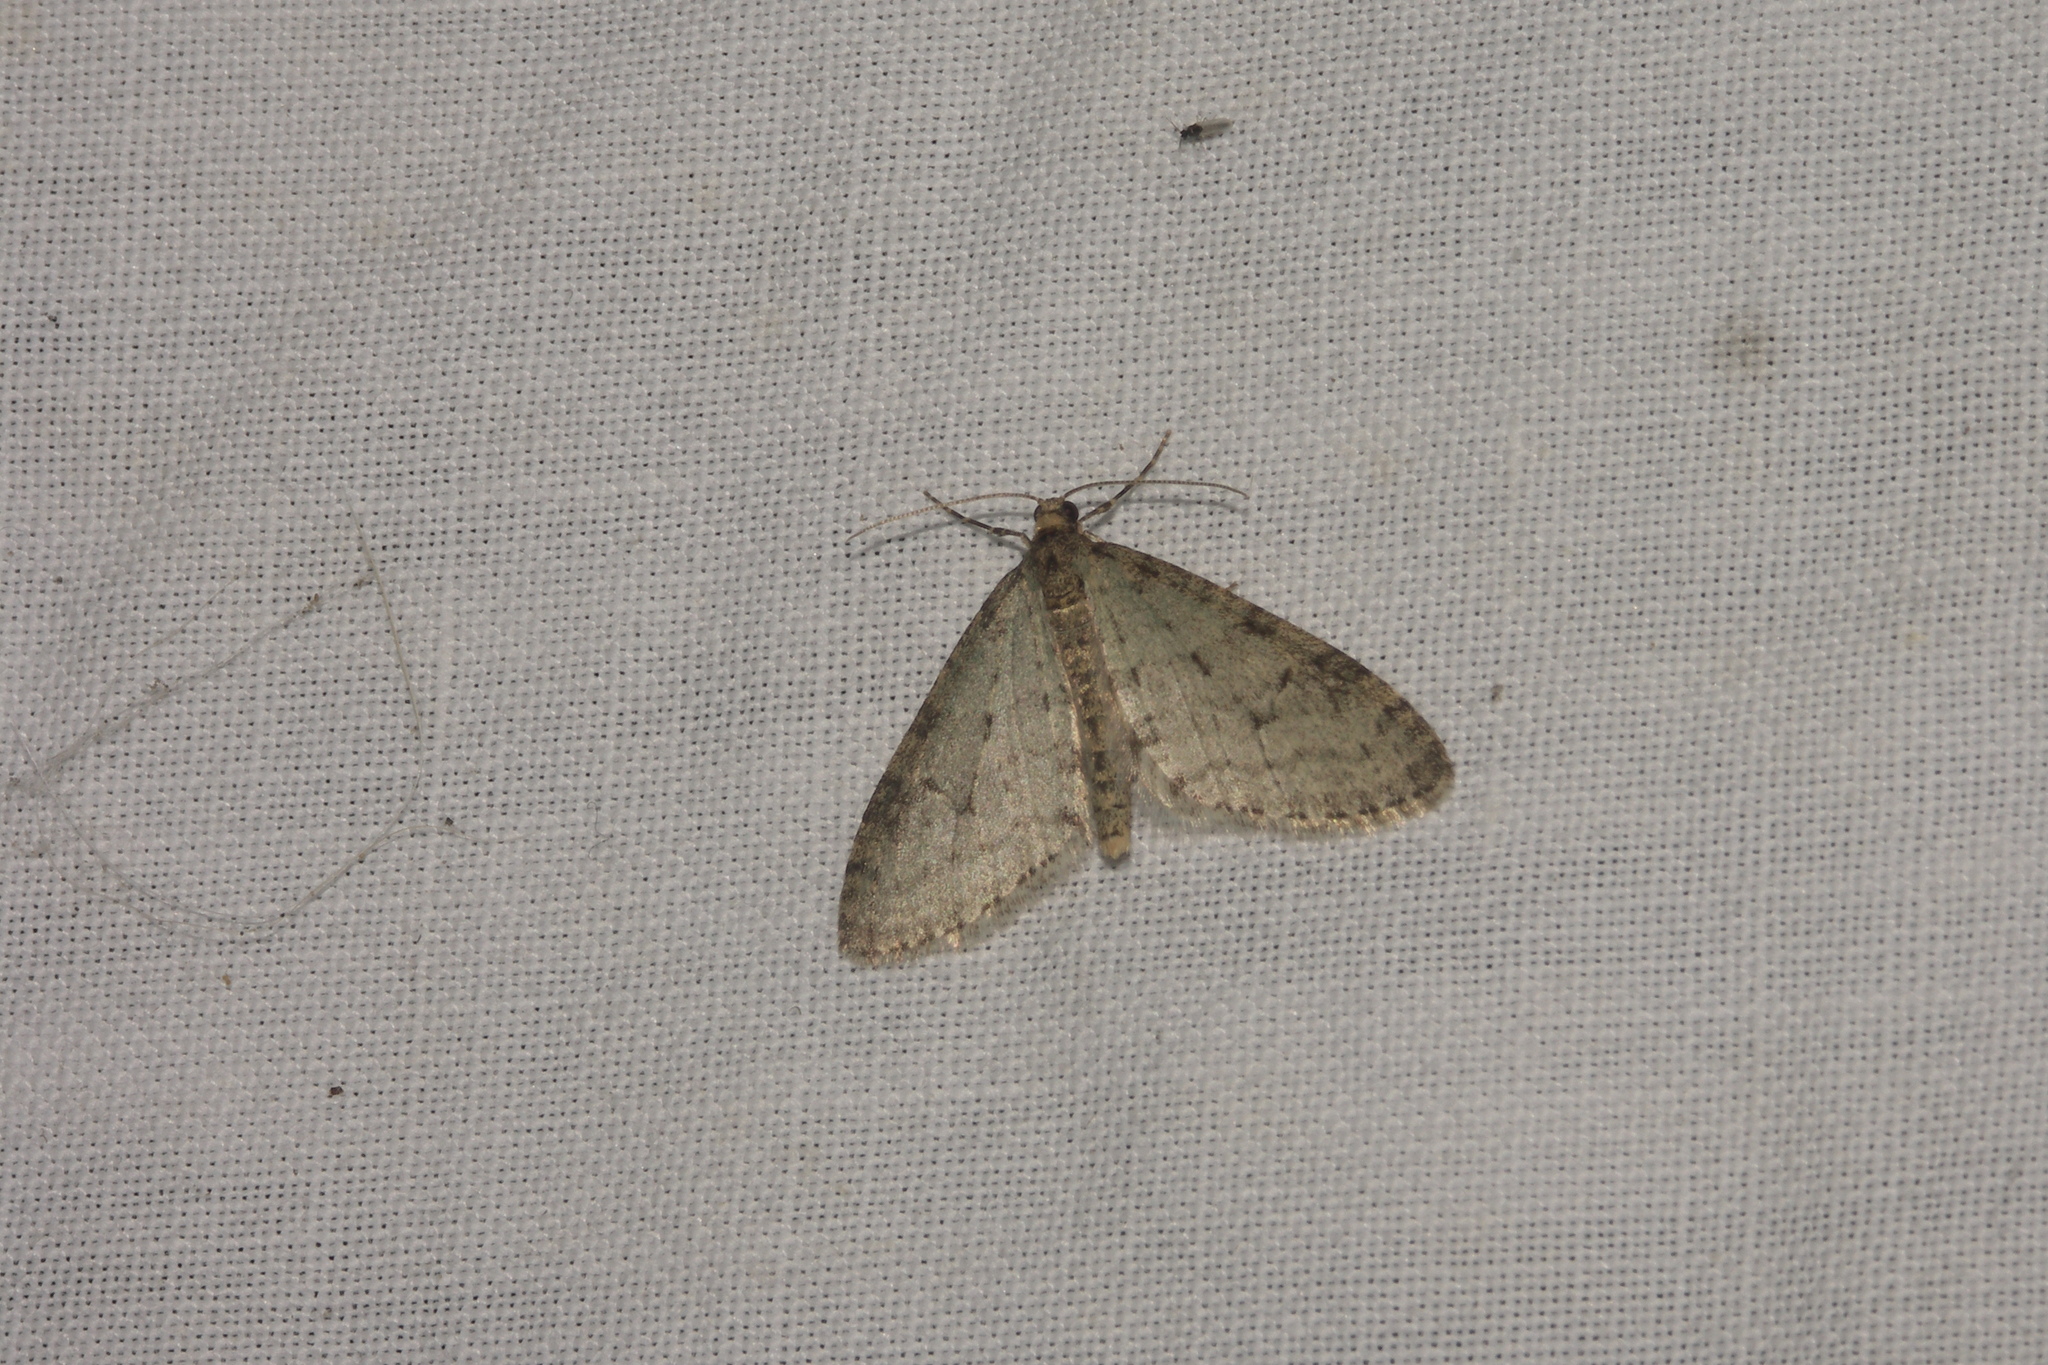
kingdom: Animalia
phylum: Arthropoda
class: Insecta
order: Lepidoptera
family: Geometridae
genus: Trichopteryx
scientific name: Trichopteryx carpinata
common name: Early tooth-striped
